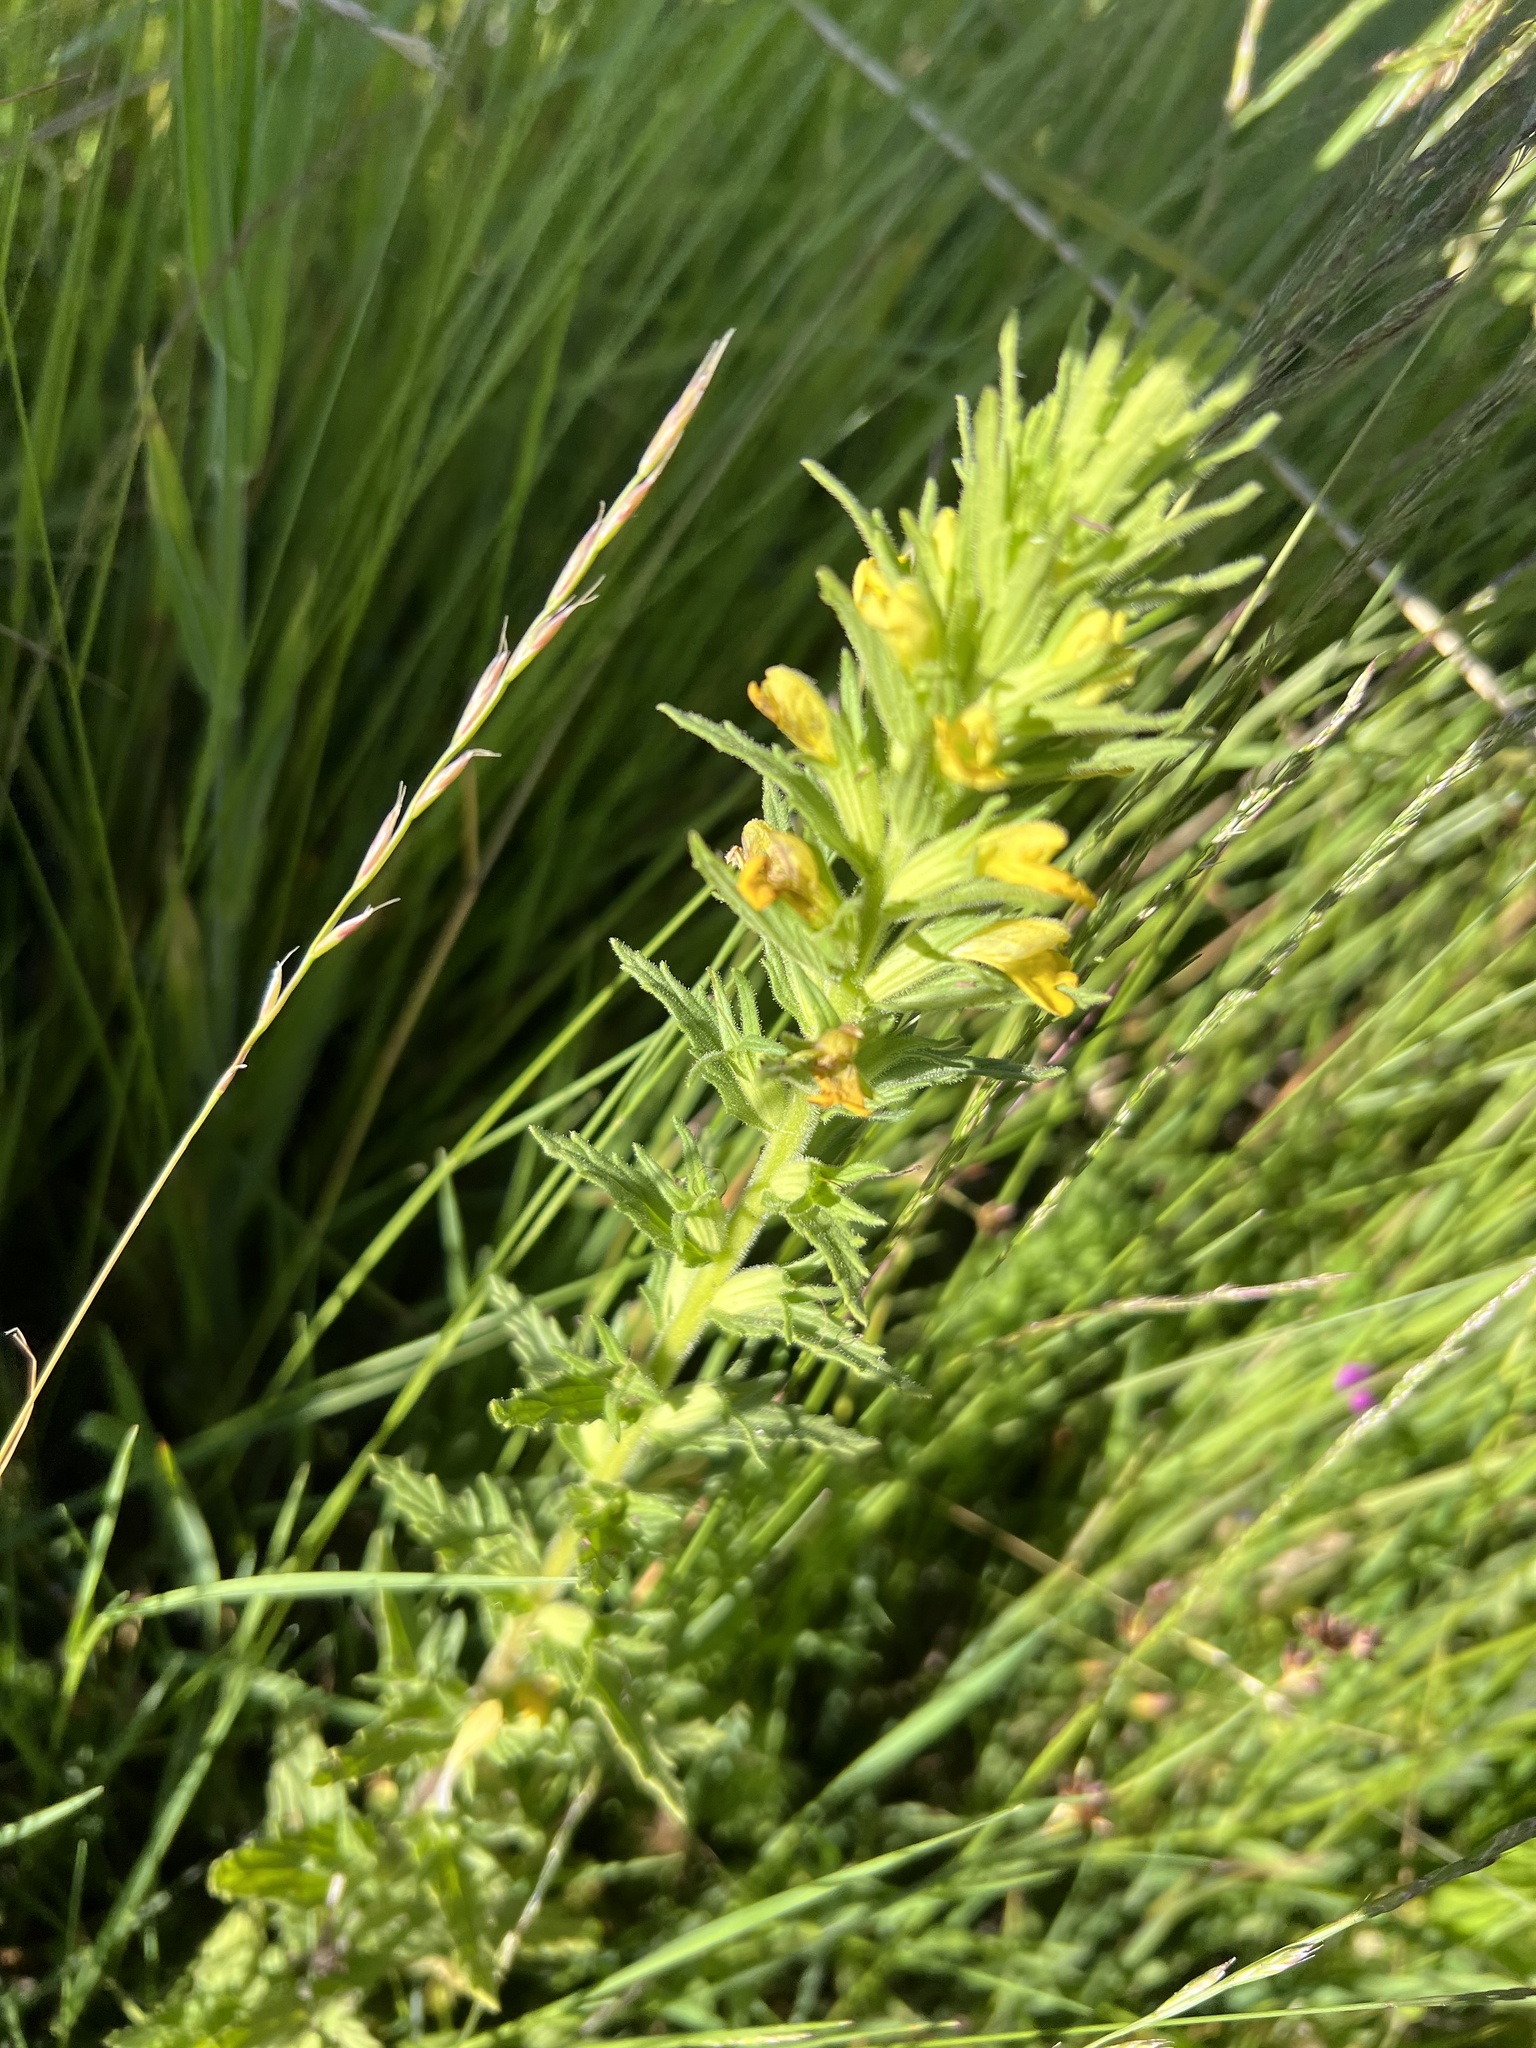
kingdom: Plantae
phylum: Tracheophyta
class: Magnoliopsida
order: Lamiales
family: Orobanchaceae
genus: Bellardia
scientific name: Bellardia viscosa
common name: Sticky parentucellia
